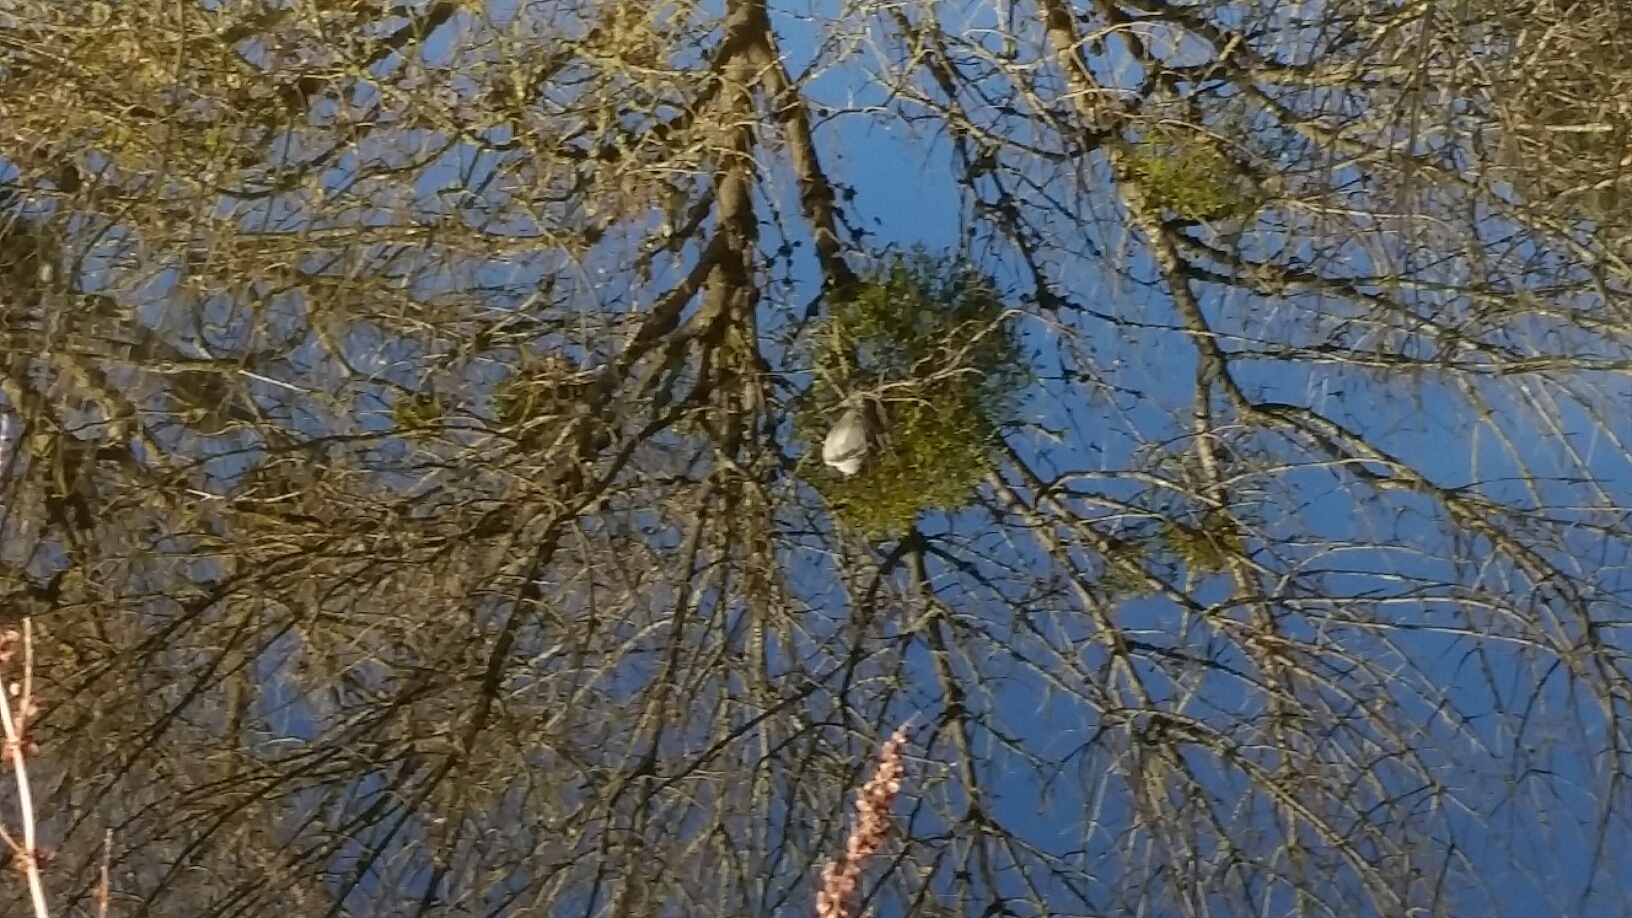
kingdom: Animalia
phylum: Chordata
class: Aves
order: Pelecaniformes
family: Ardeidae
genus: Nycticorax
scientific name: Nycticorax nycticorax
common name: Black-crowned night heron
